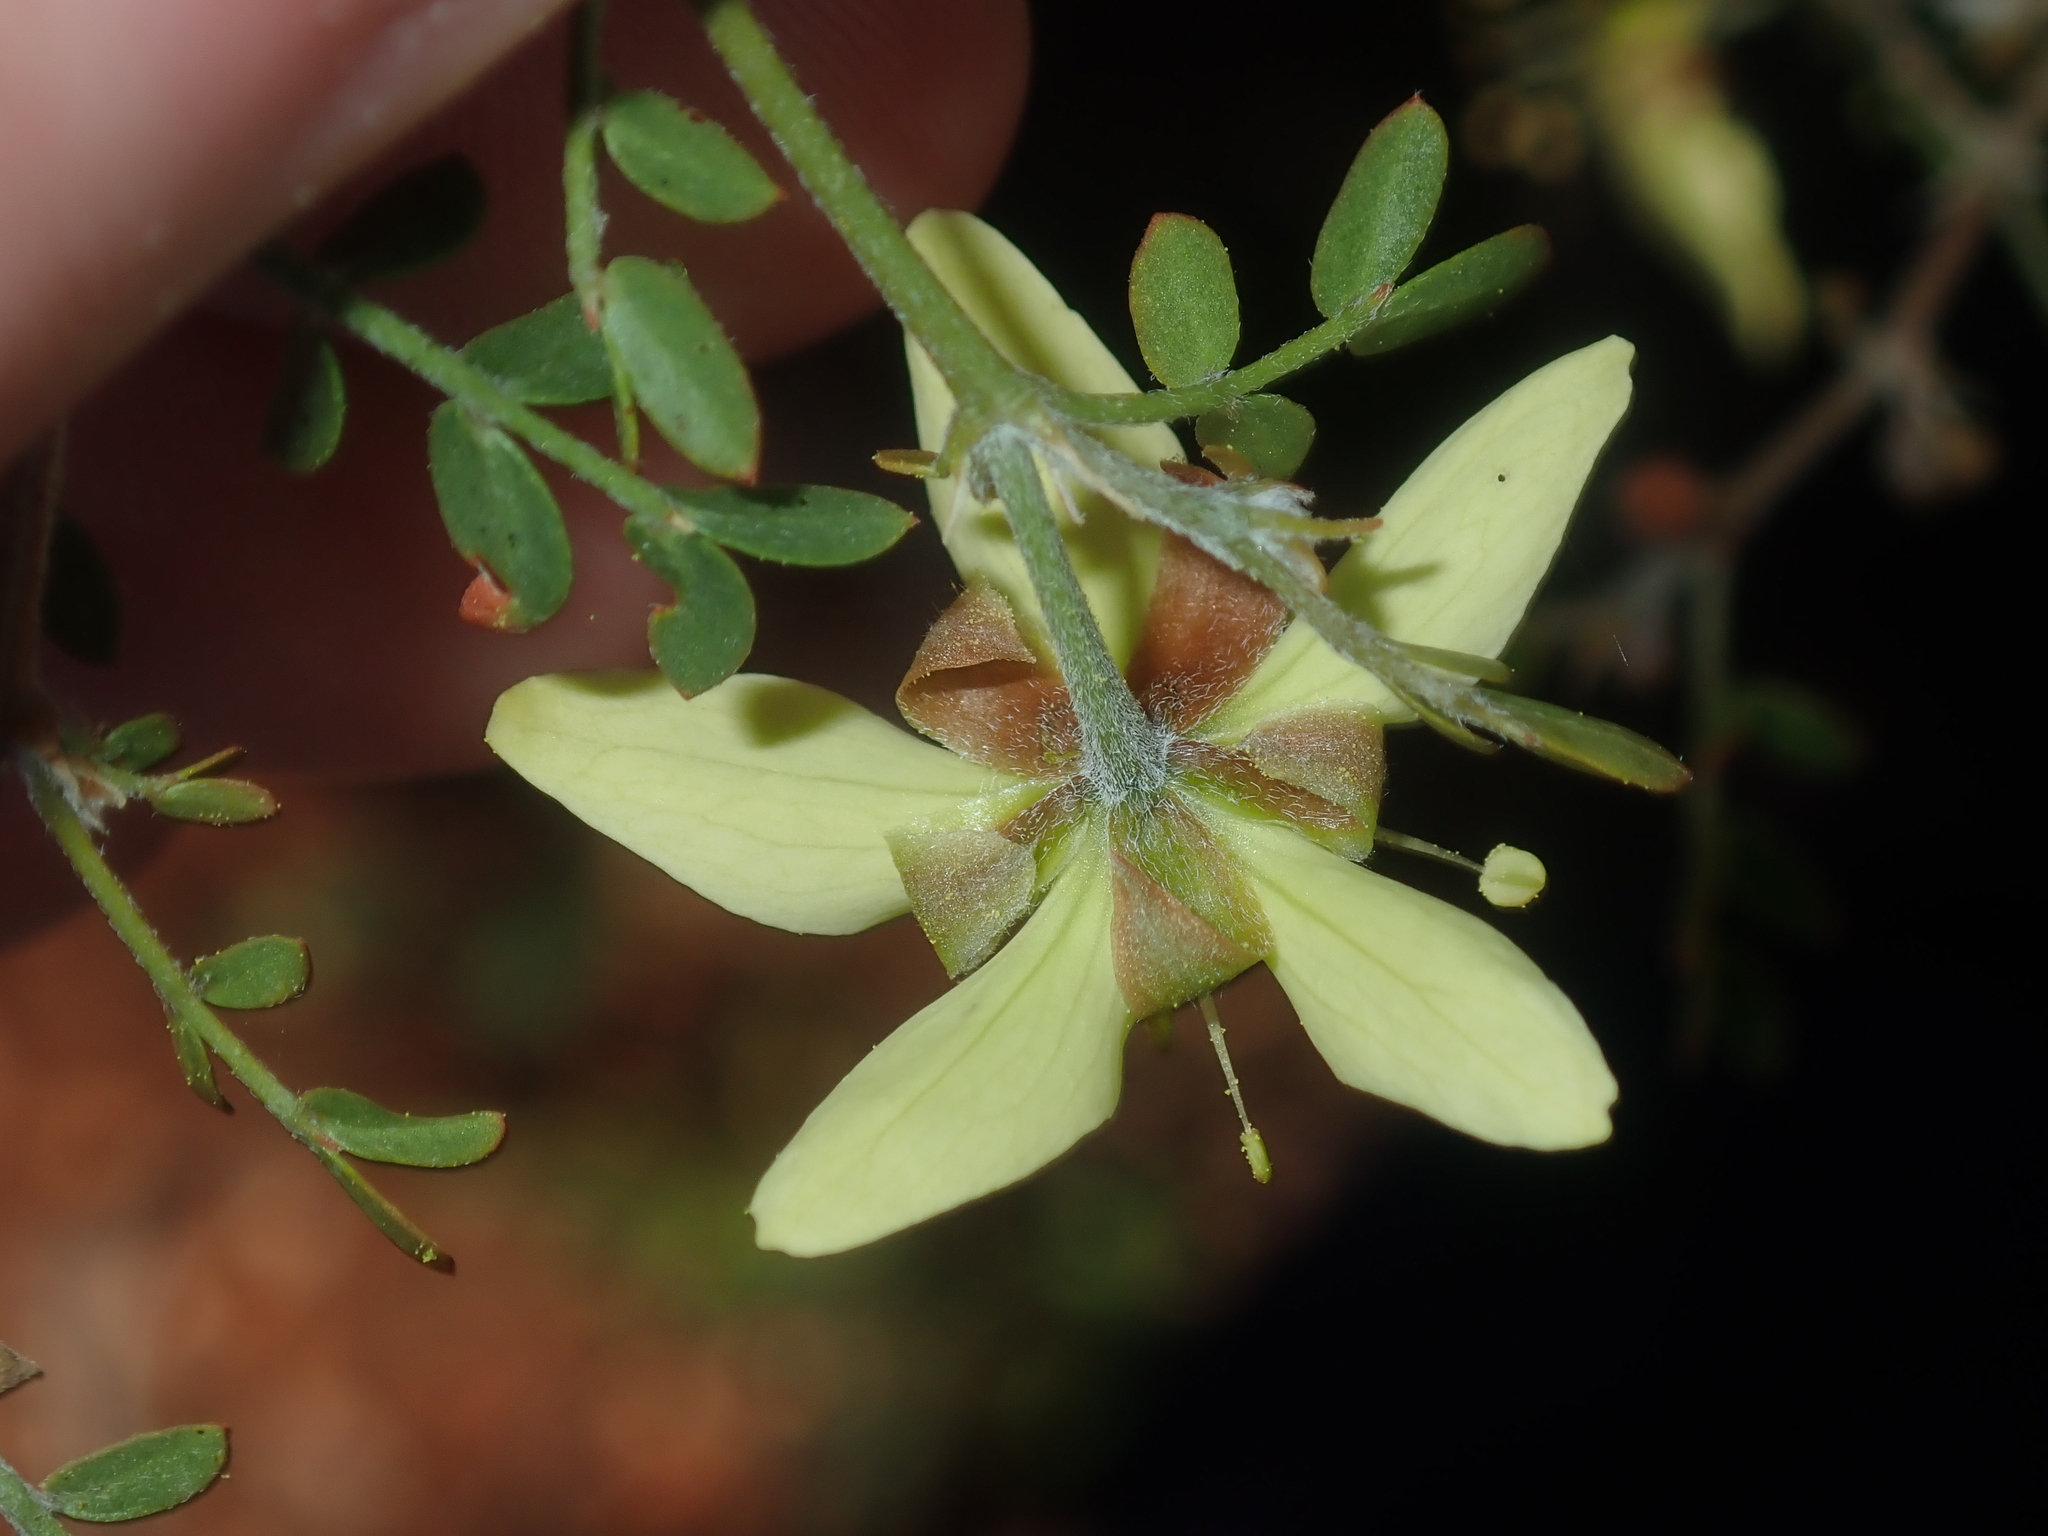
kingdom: Plantae
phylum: Tracheophyta
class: Magnoliopsida
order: Zygophyllales
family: Zygophyllaceae
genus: Tribulus
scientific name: Tribulus suberosus
